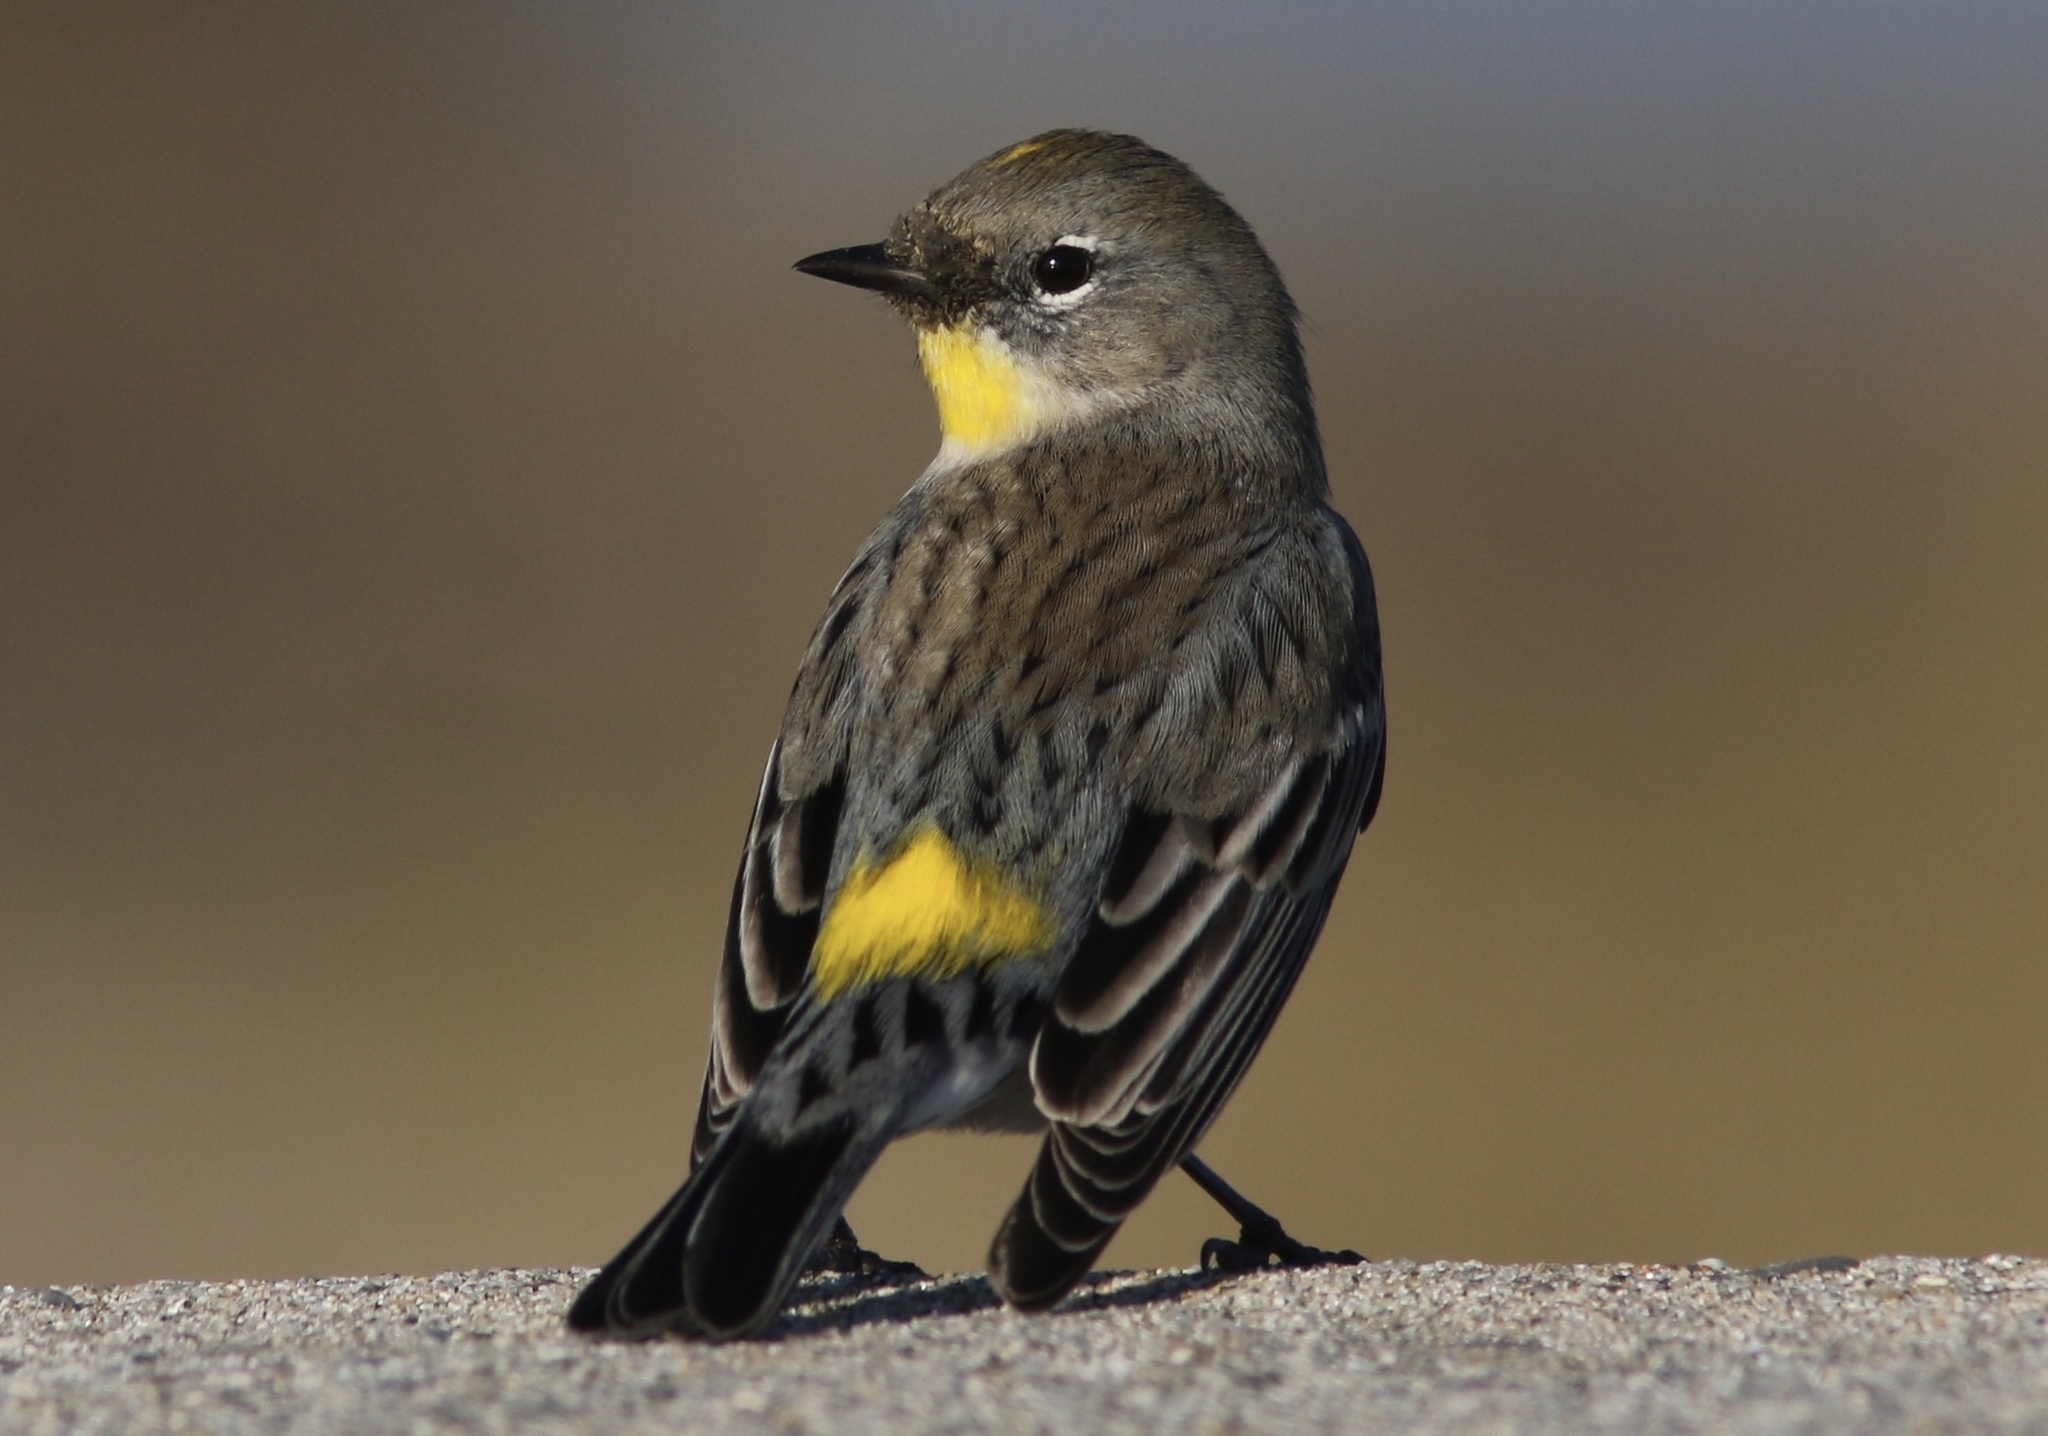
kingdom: Animalia
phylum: Chordata
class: Aves
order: Passeriformes
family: Parulidae
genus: Setophaga
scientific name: Setophaga coronata
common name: Myrtle warbler
